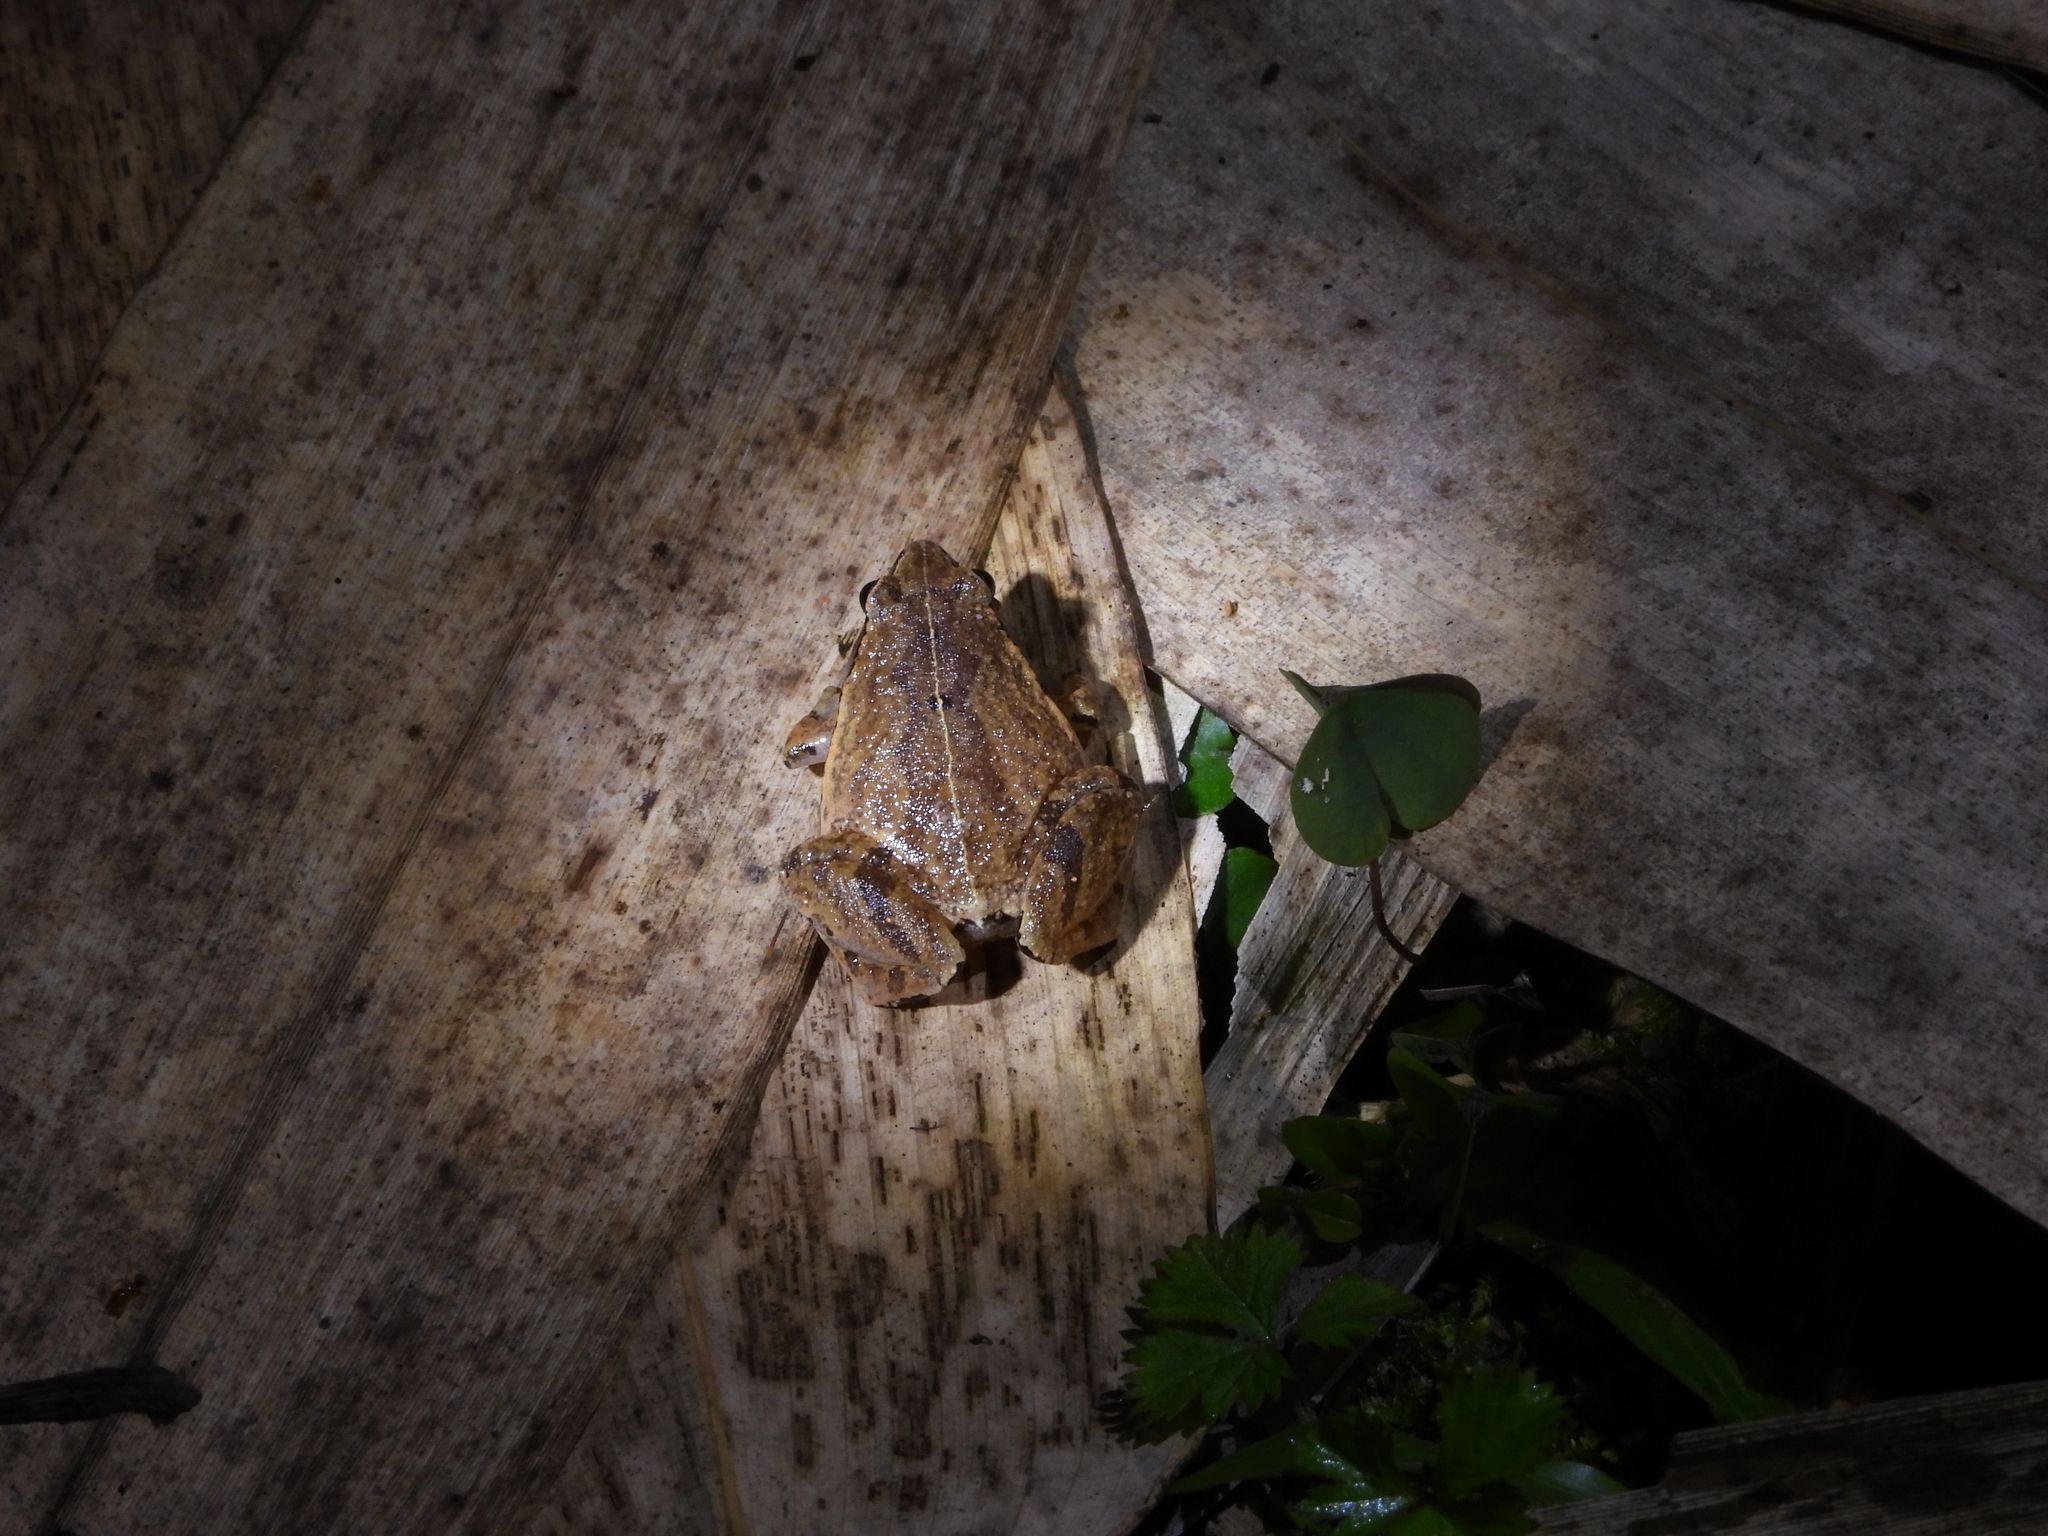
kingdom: Animalia
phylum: Chordata
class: Amphibia
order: Anura
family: Microhylidae
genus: Microhyla
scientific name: Microhyla heymonsi
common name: Taiwan rice frog,dark sided chorus frog
